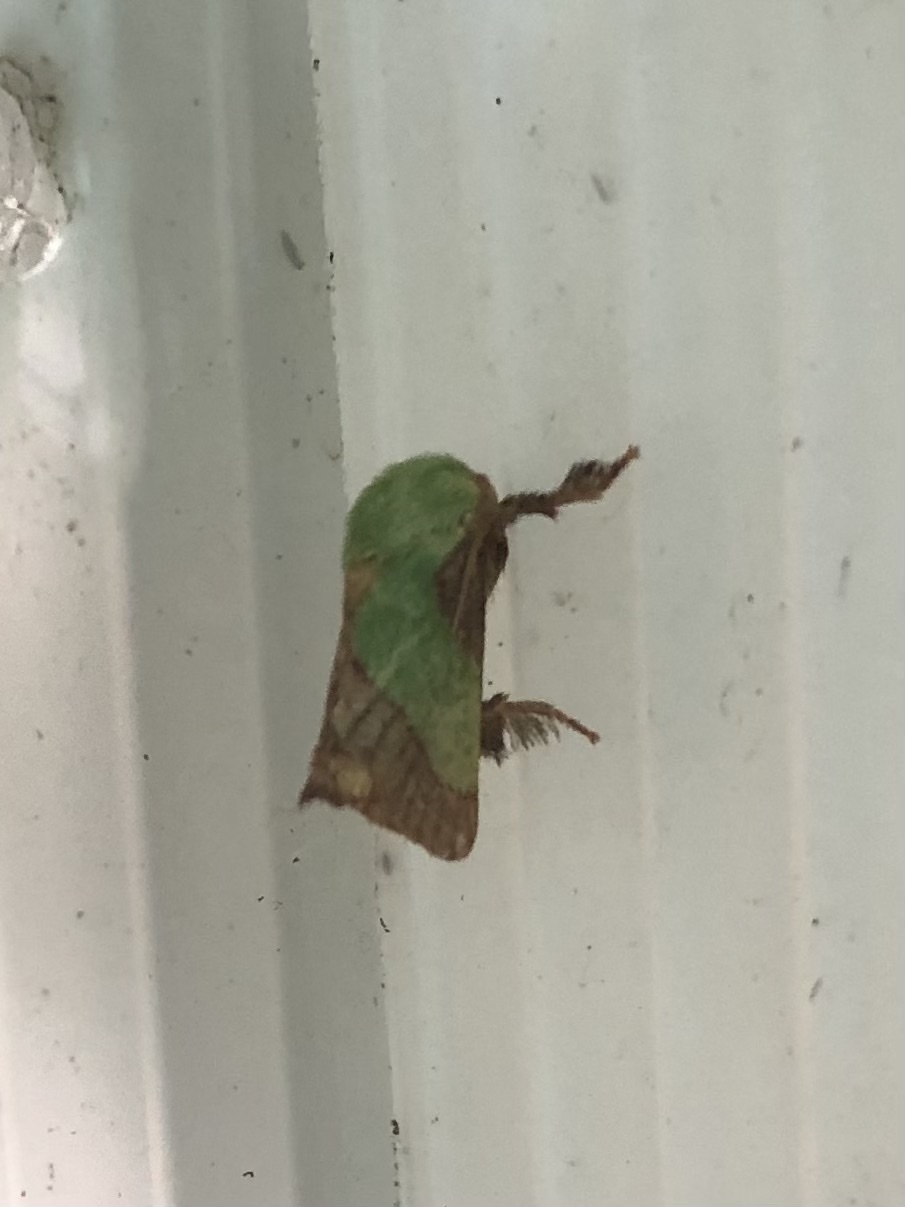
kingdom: Animalia
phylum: Arthropoda
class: Insecta
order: Lepidoptera
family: Limacodidae
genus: Parasa
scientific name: Parasa chloris
